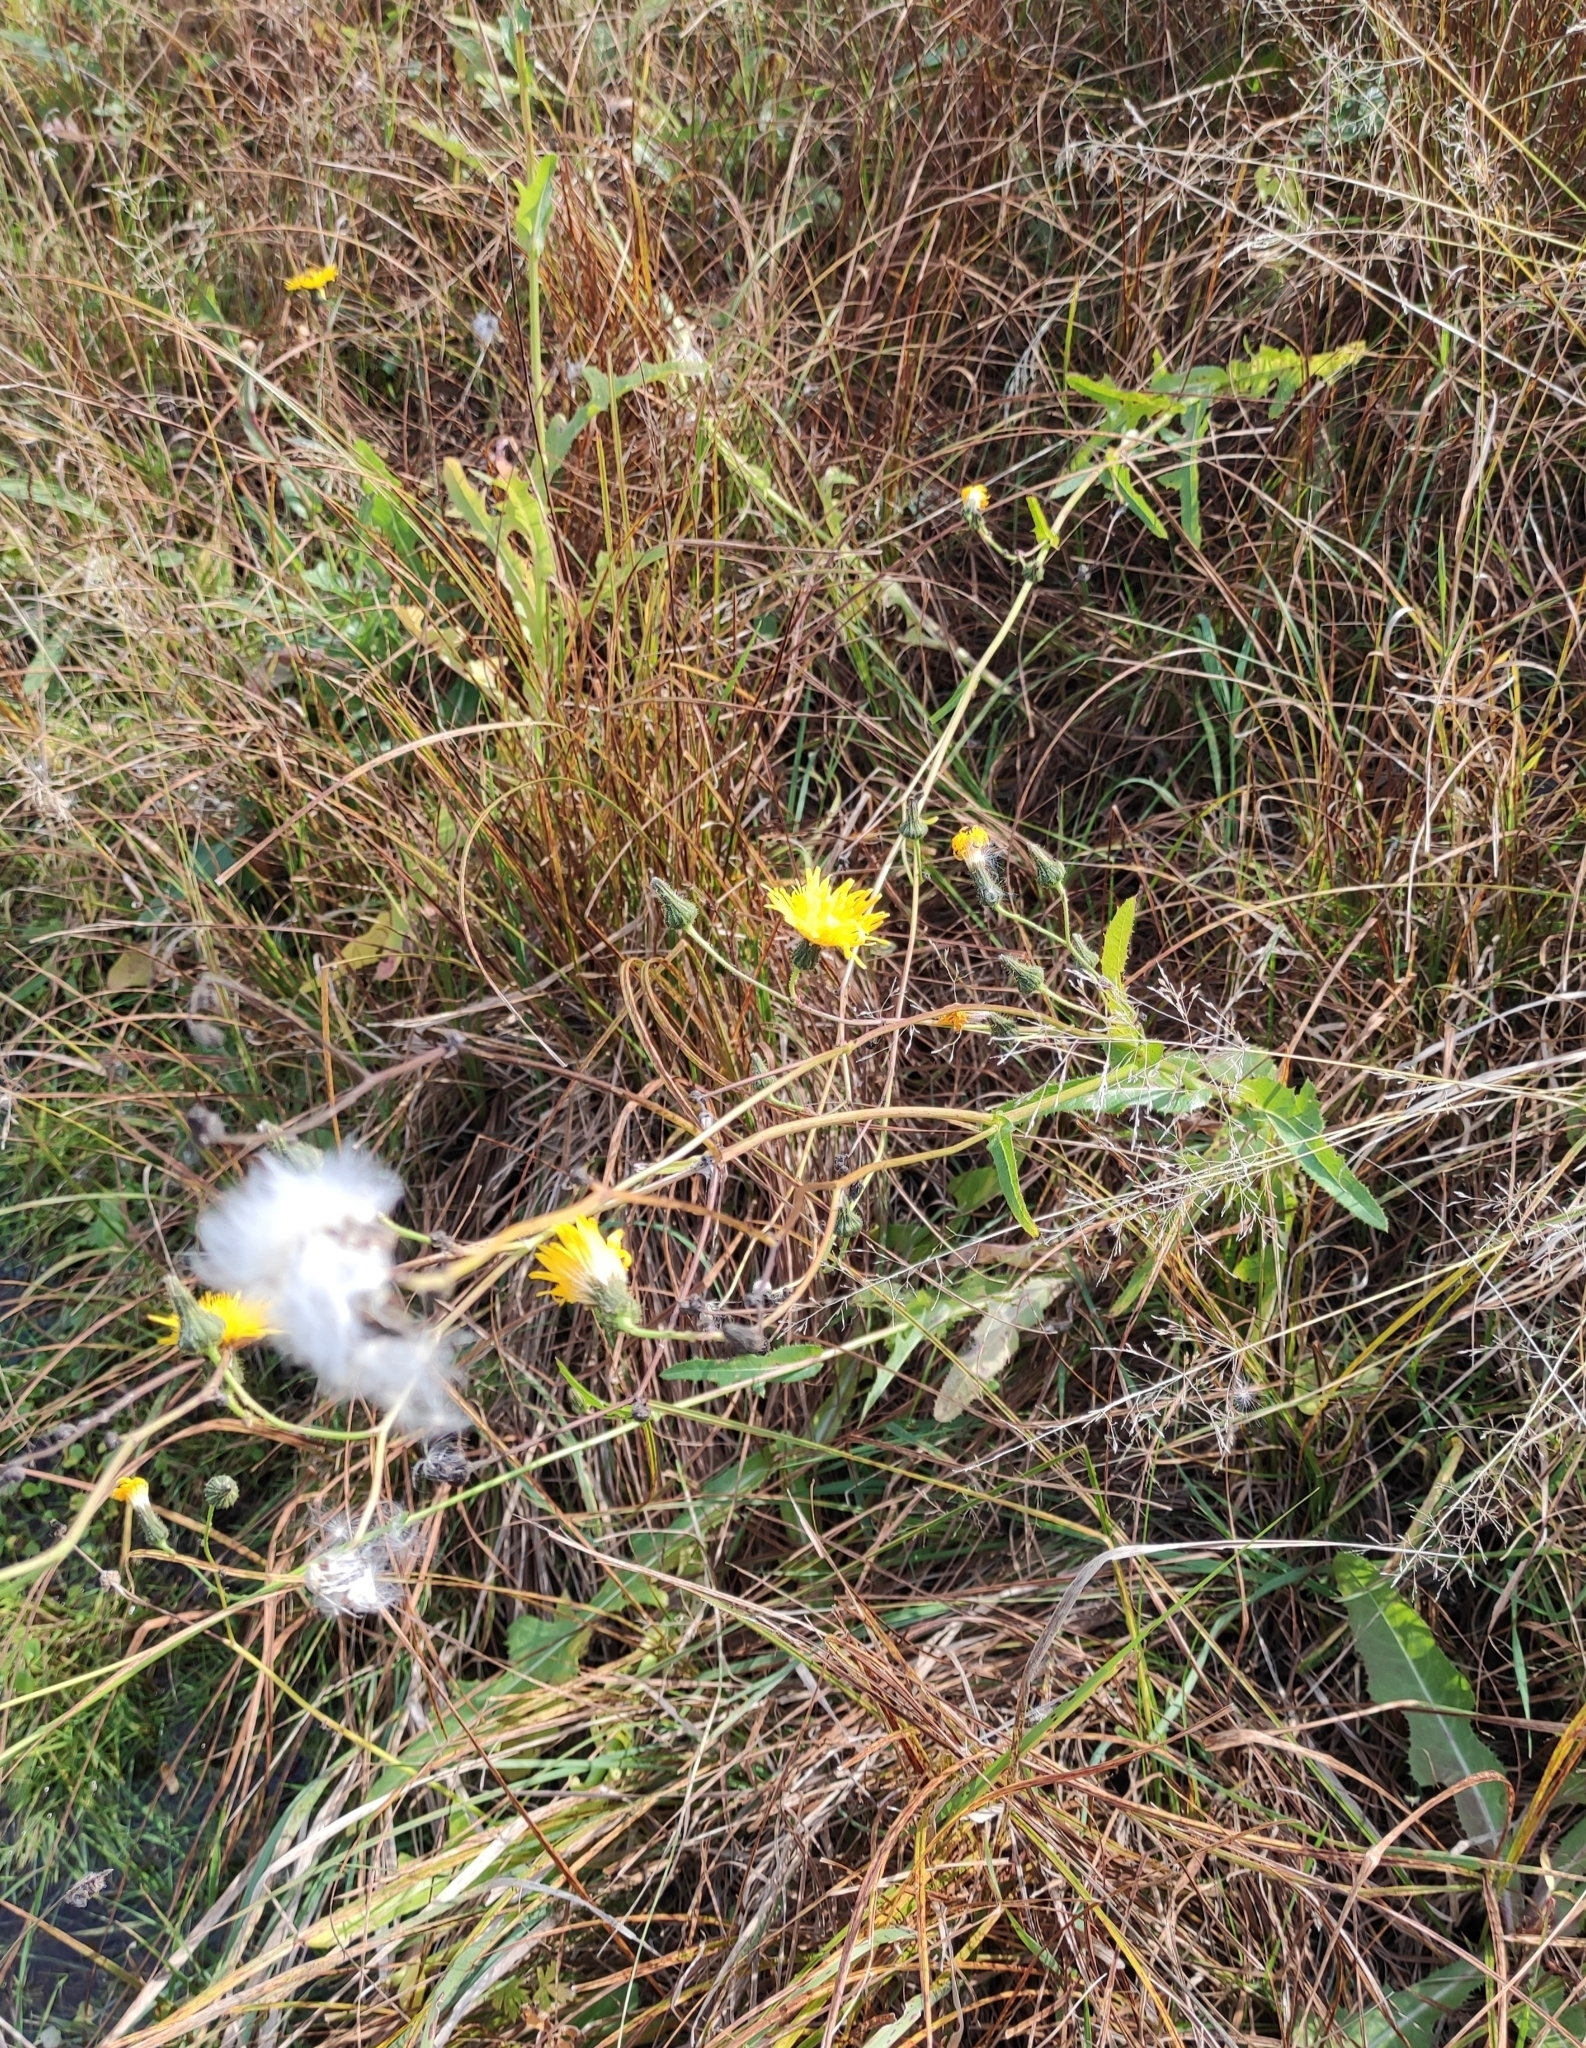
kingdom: Plantae
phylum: Tracheophyta
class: Magnoliopsida
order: Asterales
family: Asteraceae
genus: Sonchus
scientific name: Sonchus arvensis
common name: Perennial sow-thistle
